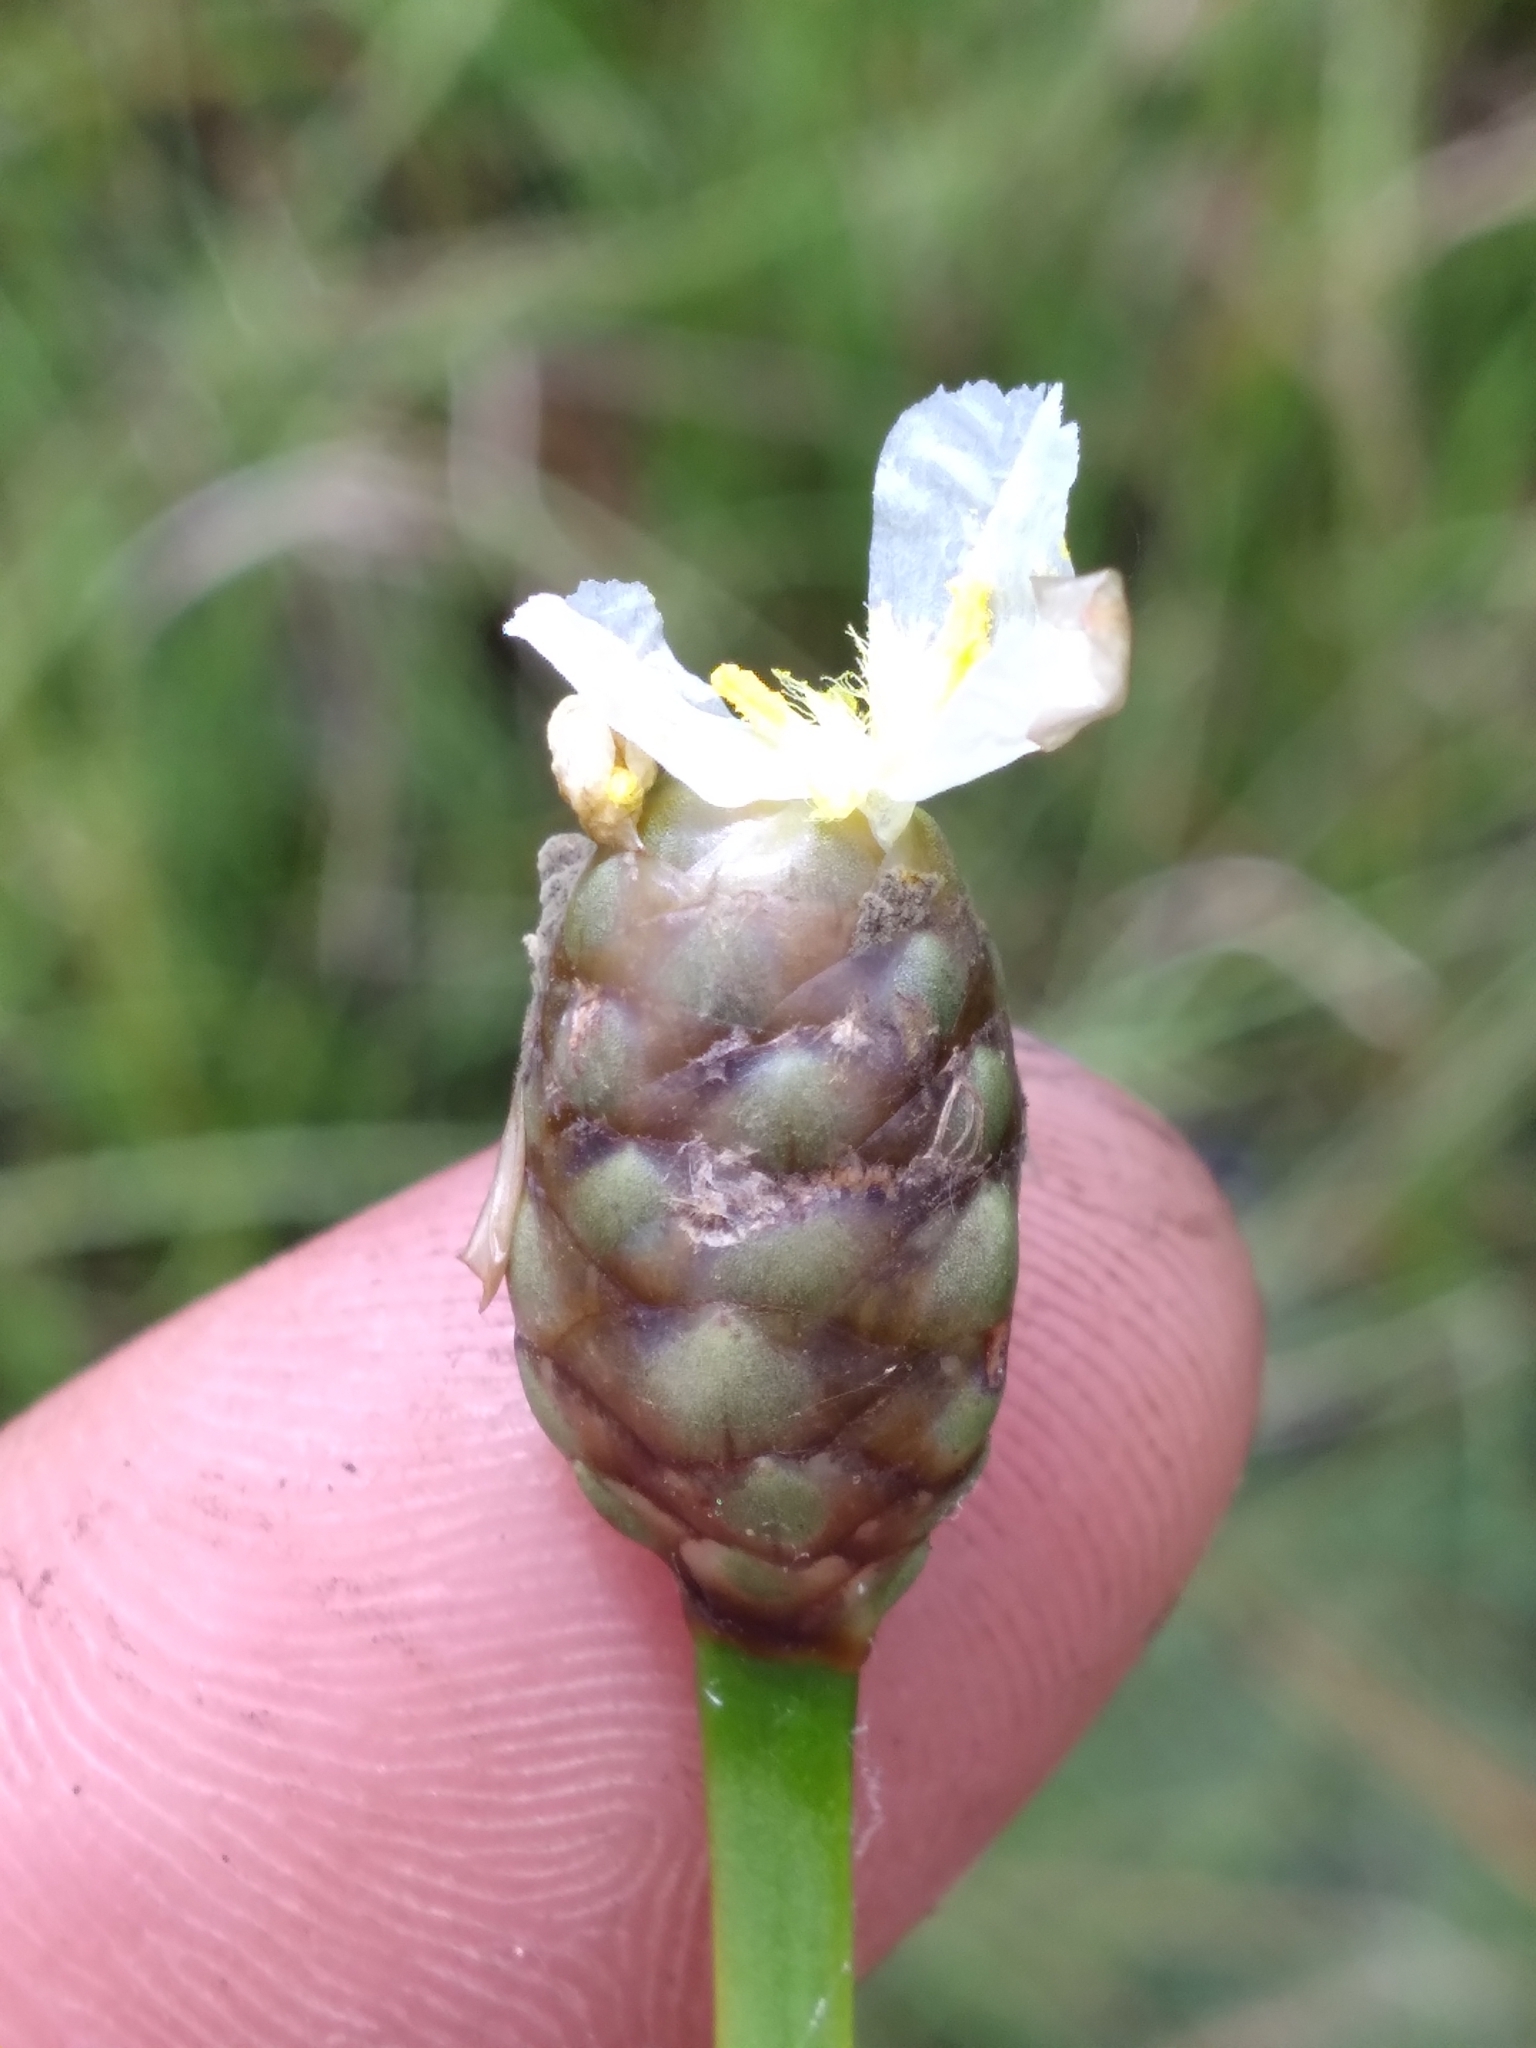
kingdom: Plantae
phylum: Tracheophyta
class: Liliopsida
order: Poales
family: Xyridaceae
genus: Xyris
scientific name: Xyris platylepis
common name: Tall yelloweyed grass
